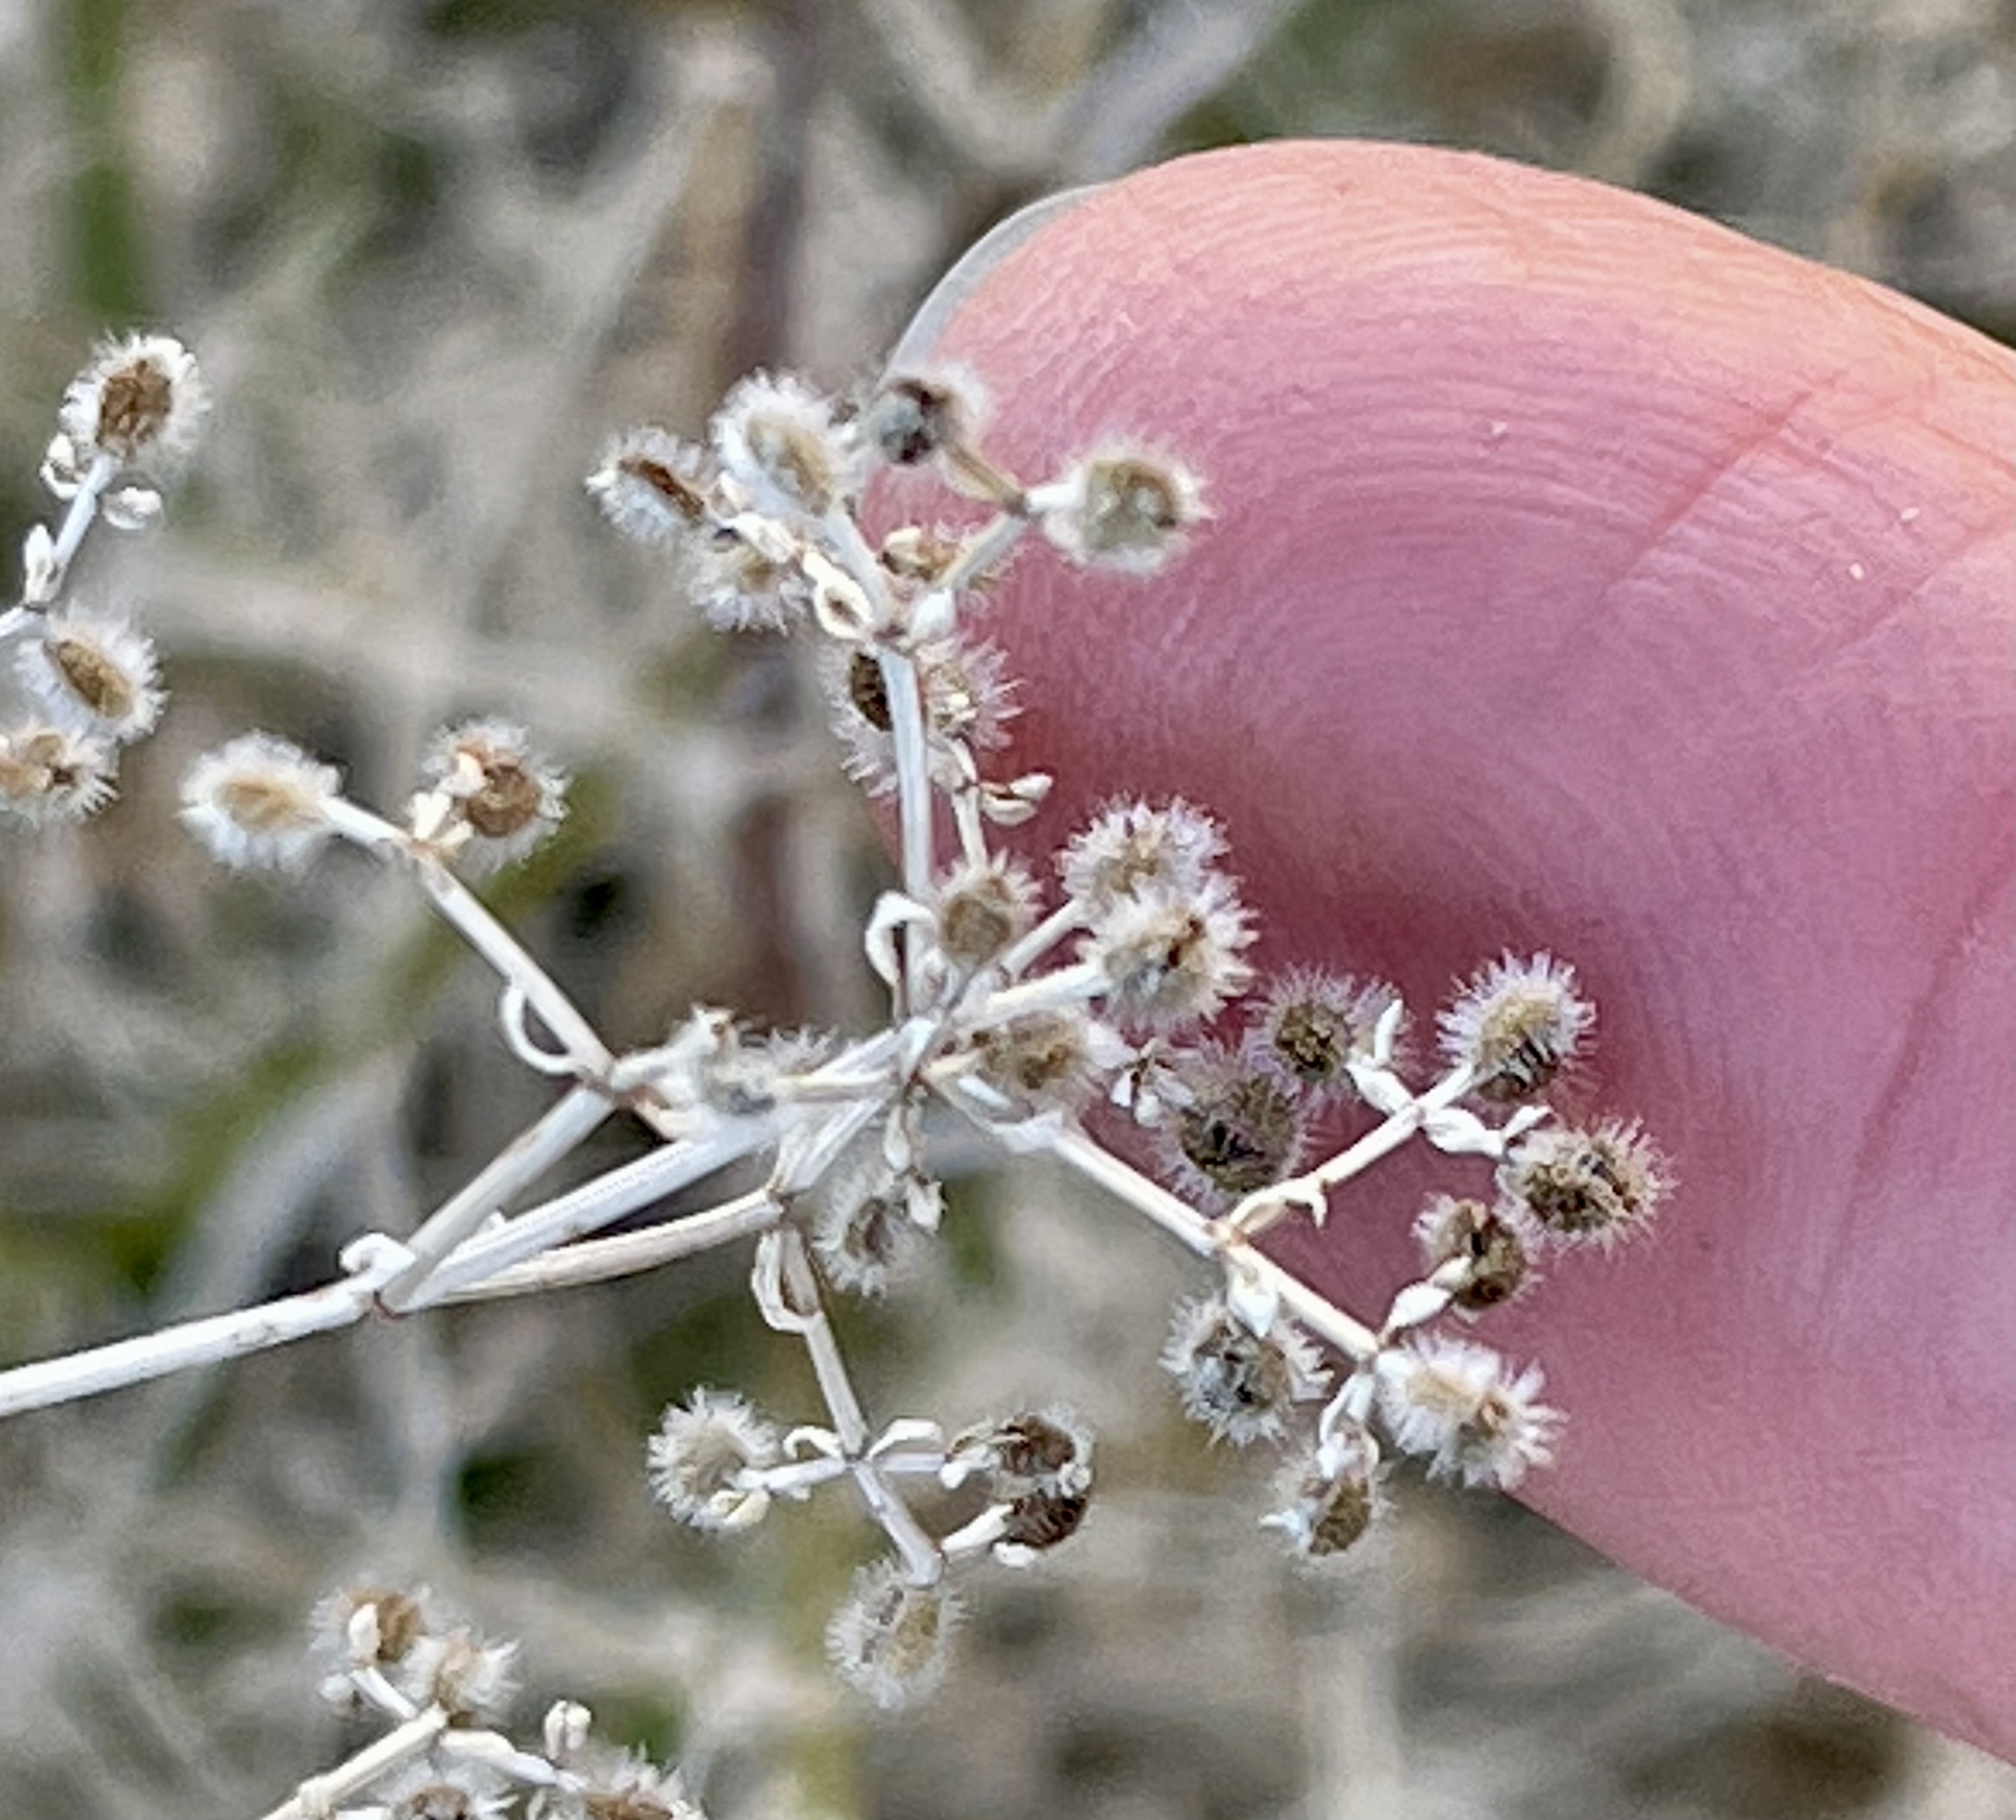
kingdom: Plantae
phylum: Tracheophyta
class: Magnoliopsida
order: Gentianales
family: Rubiaceae
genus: Galium
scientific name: Galium stellatum
